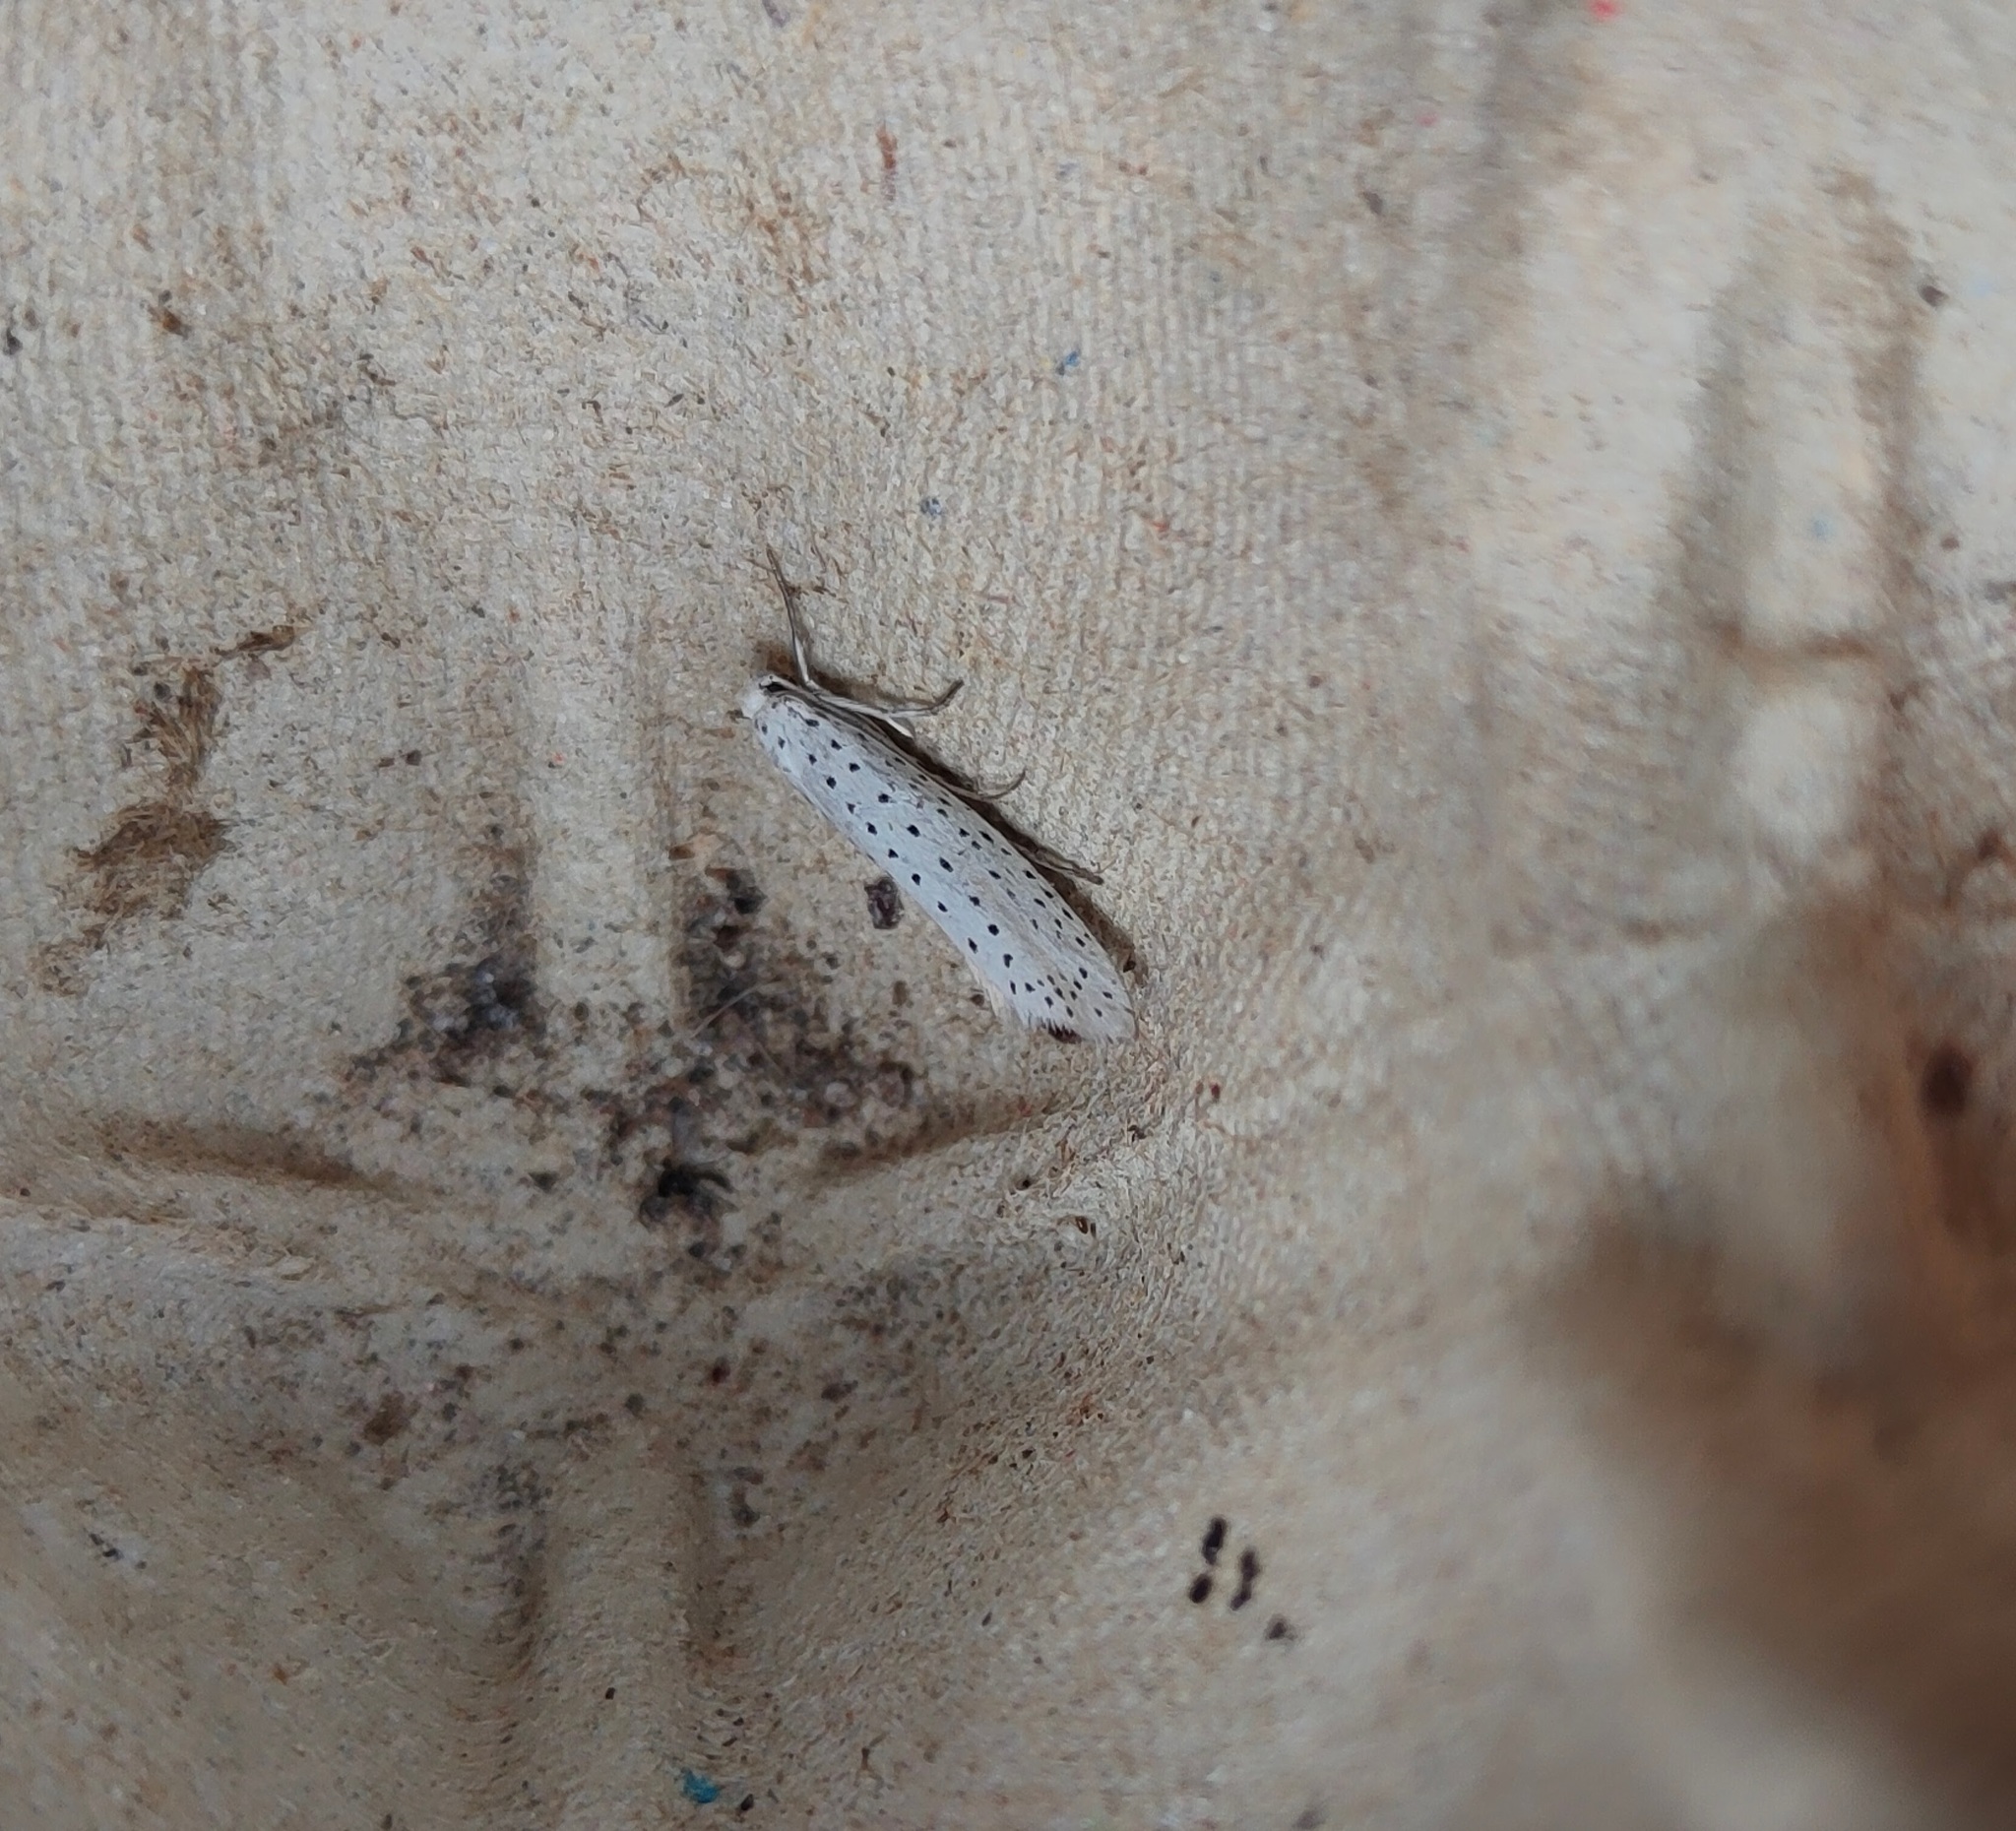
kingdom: Animalia
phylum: Arthropoda
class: Insecta
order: Lepidoptera
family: Yponomeutidae
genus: Yponomeuta
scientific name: Yponomeuta evonymella
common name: Bird-cherry ermine
